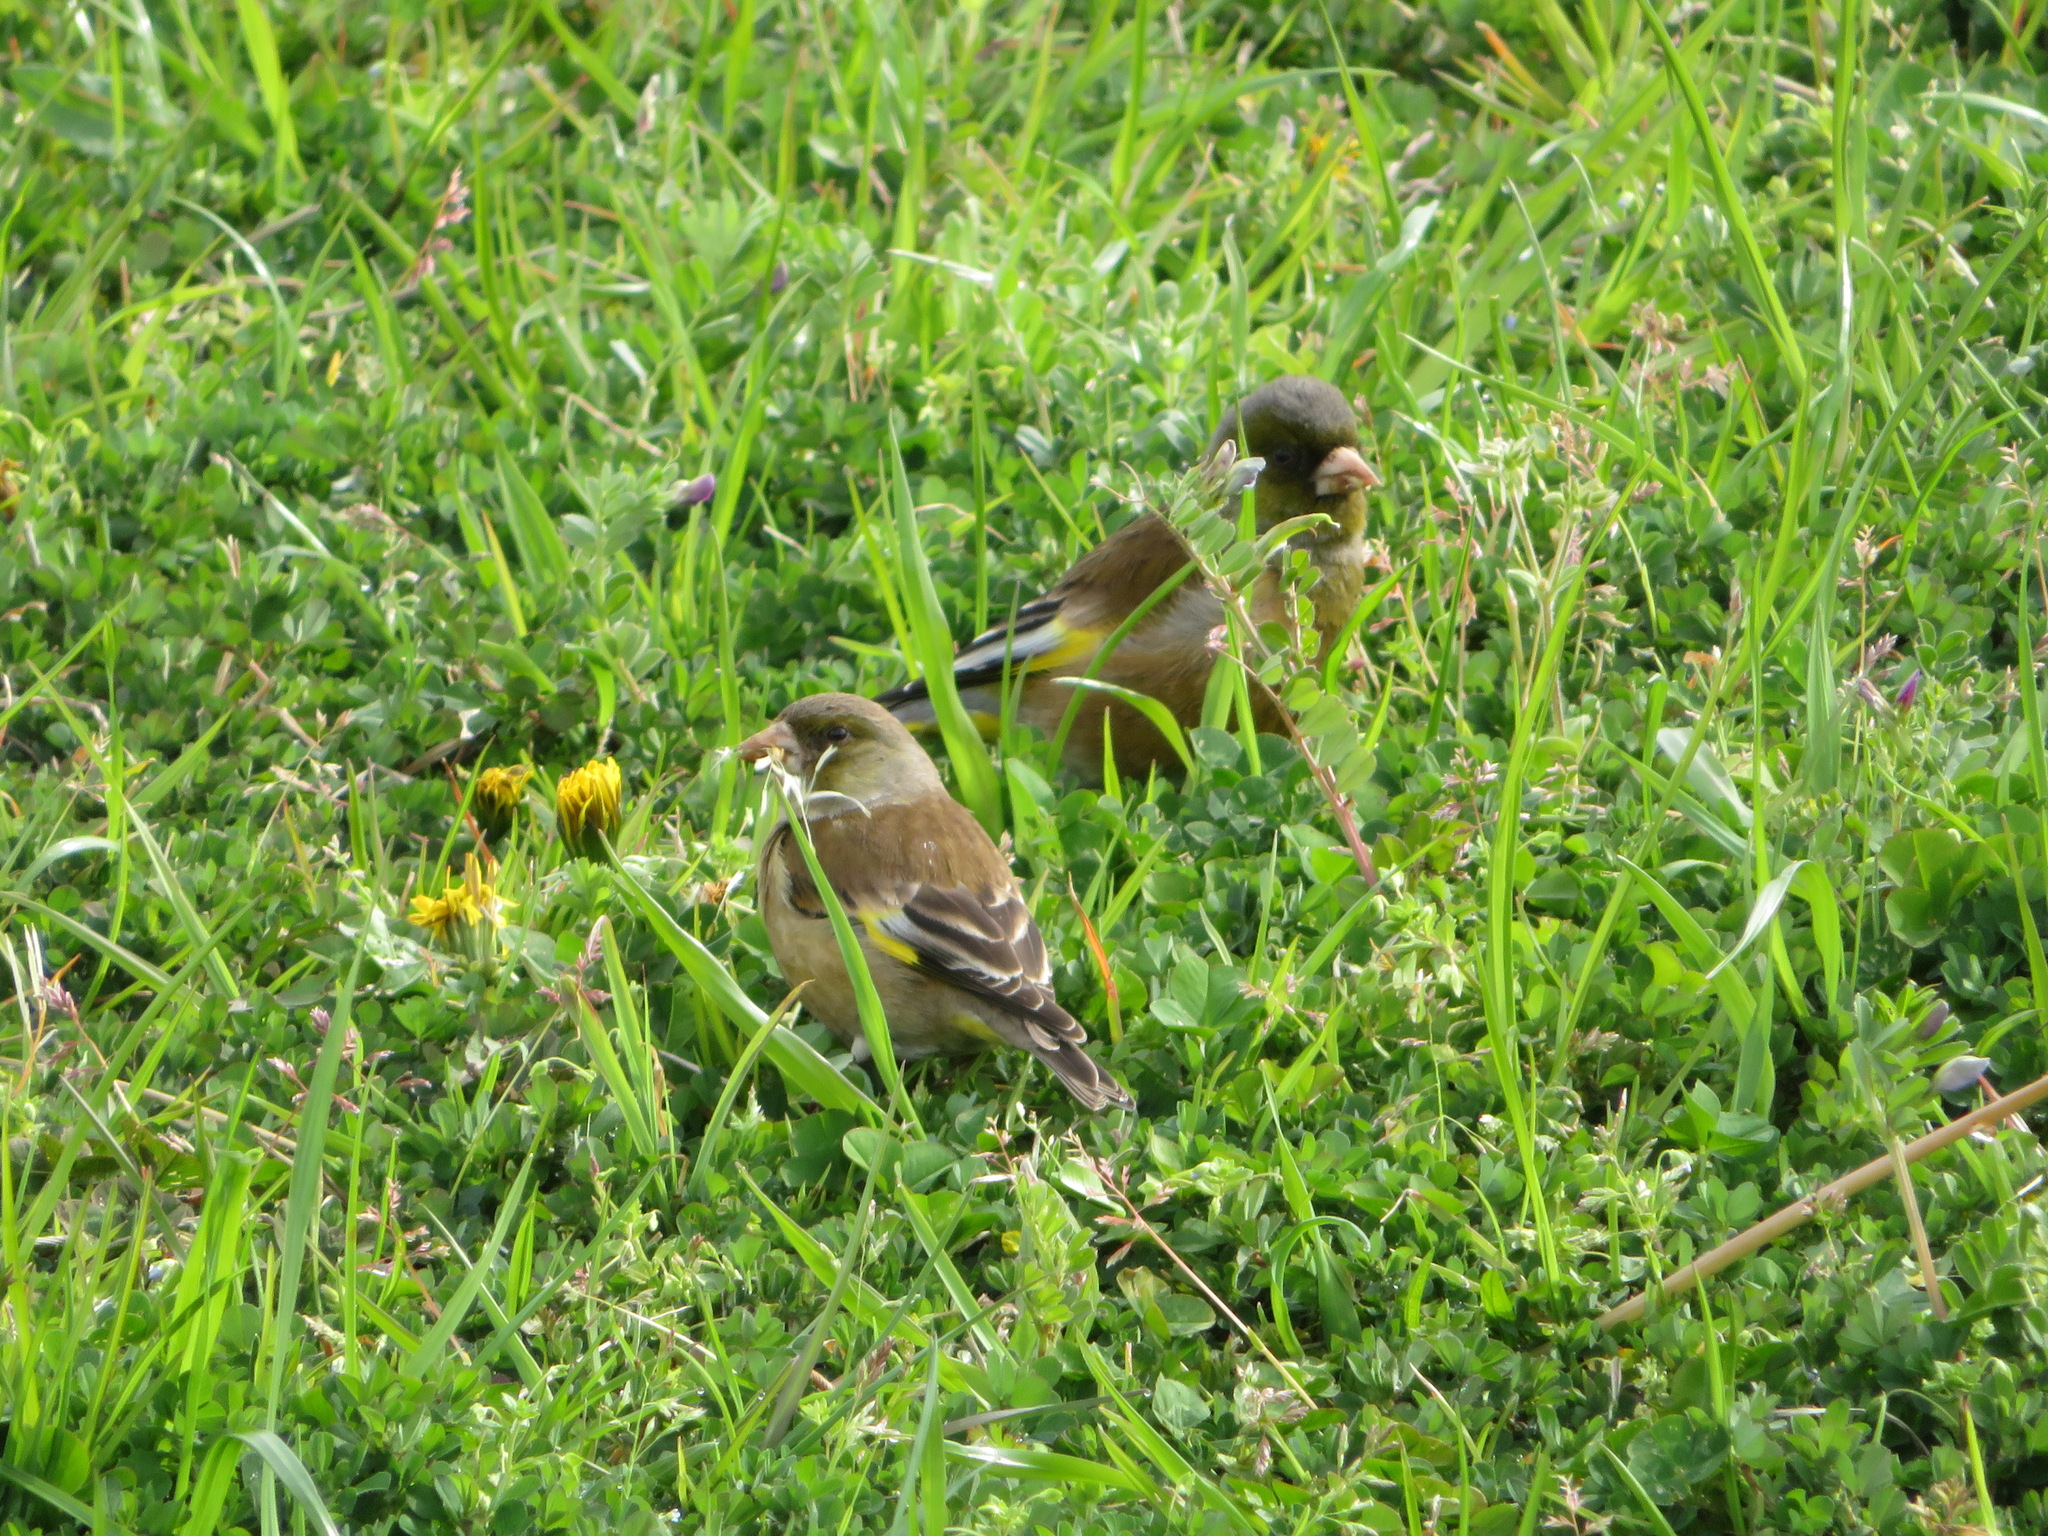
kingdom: Plantae
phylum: Tracheophyta
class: Liliopsida
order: Poales
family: Poaceae
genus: Chloris
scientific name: Chloris sinica
